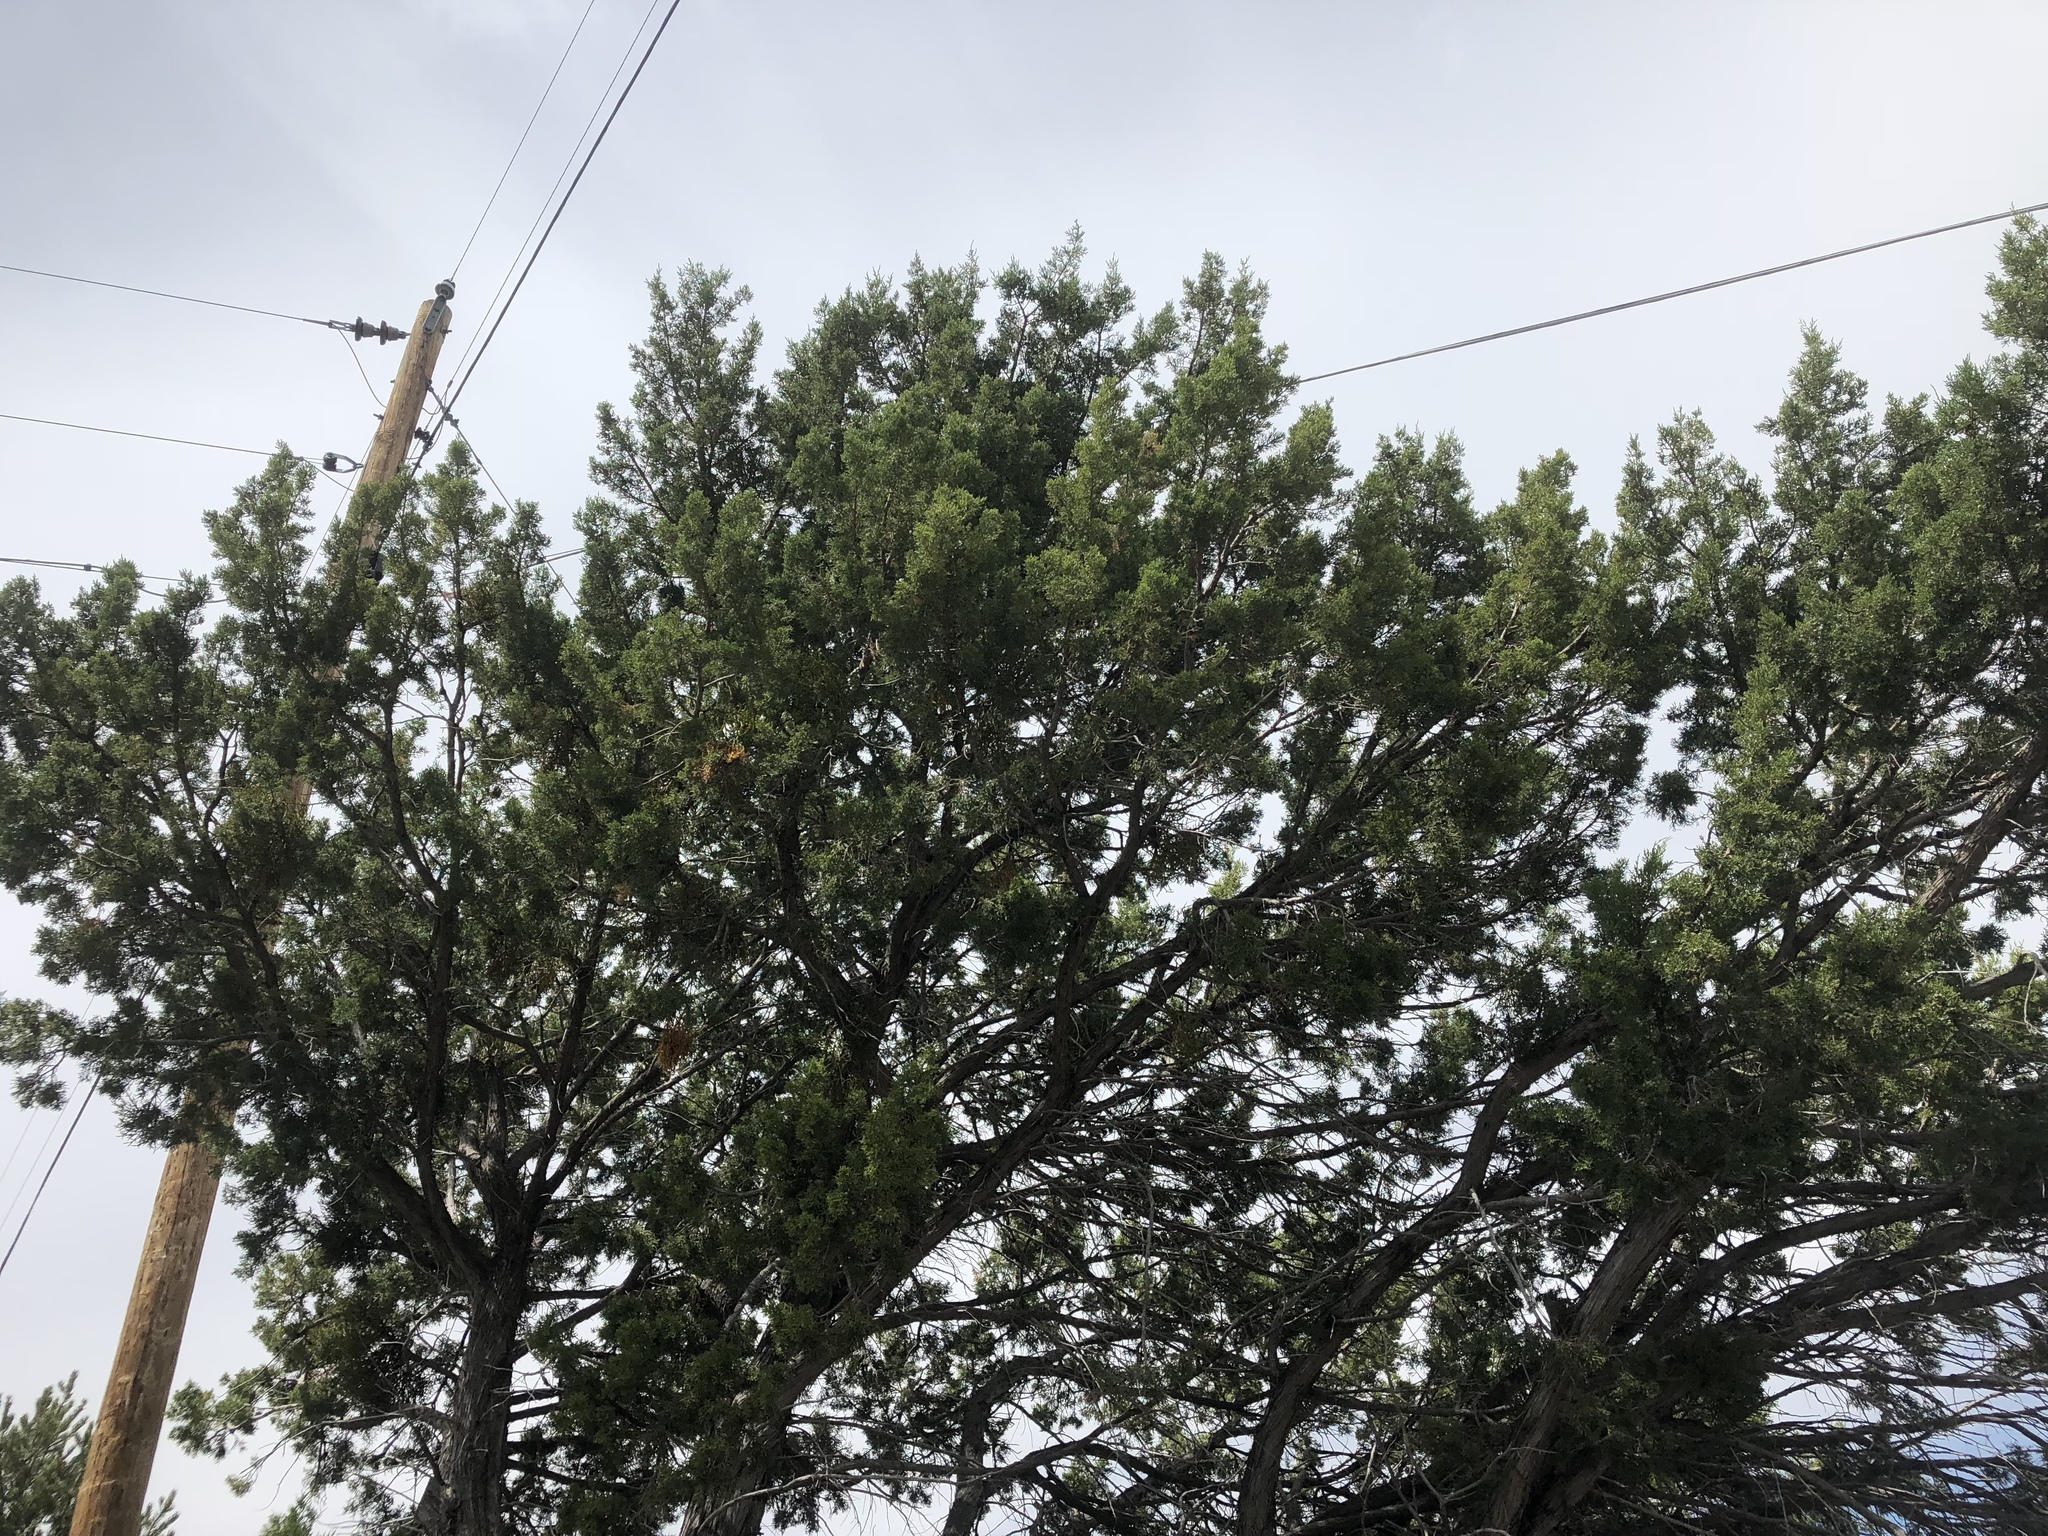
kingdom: Plantae
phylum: Tracheophyta
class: Pinopsida
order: Pinales
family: Cupressaceae
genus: Juniperus
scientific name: Juniperus monosperma
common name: One-seed juniper
